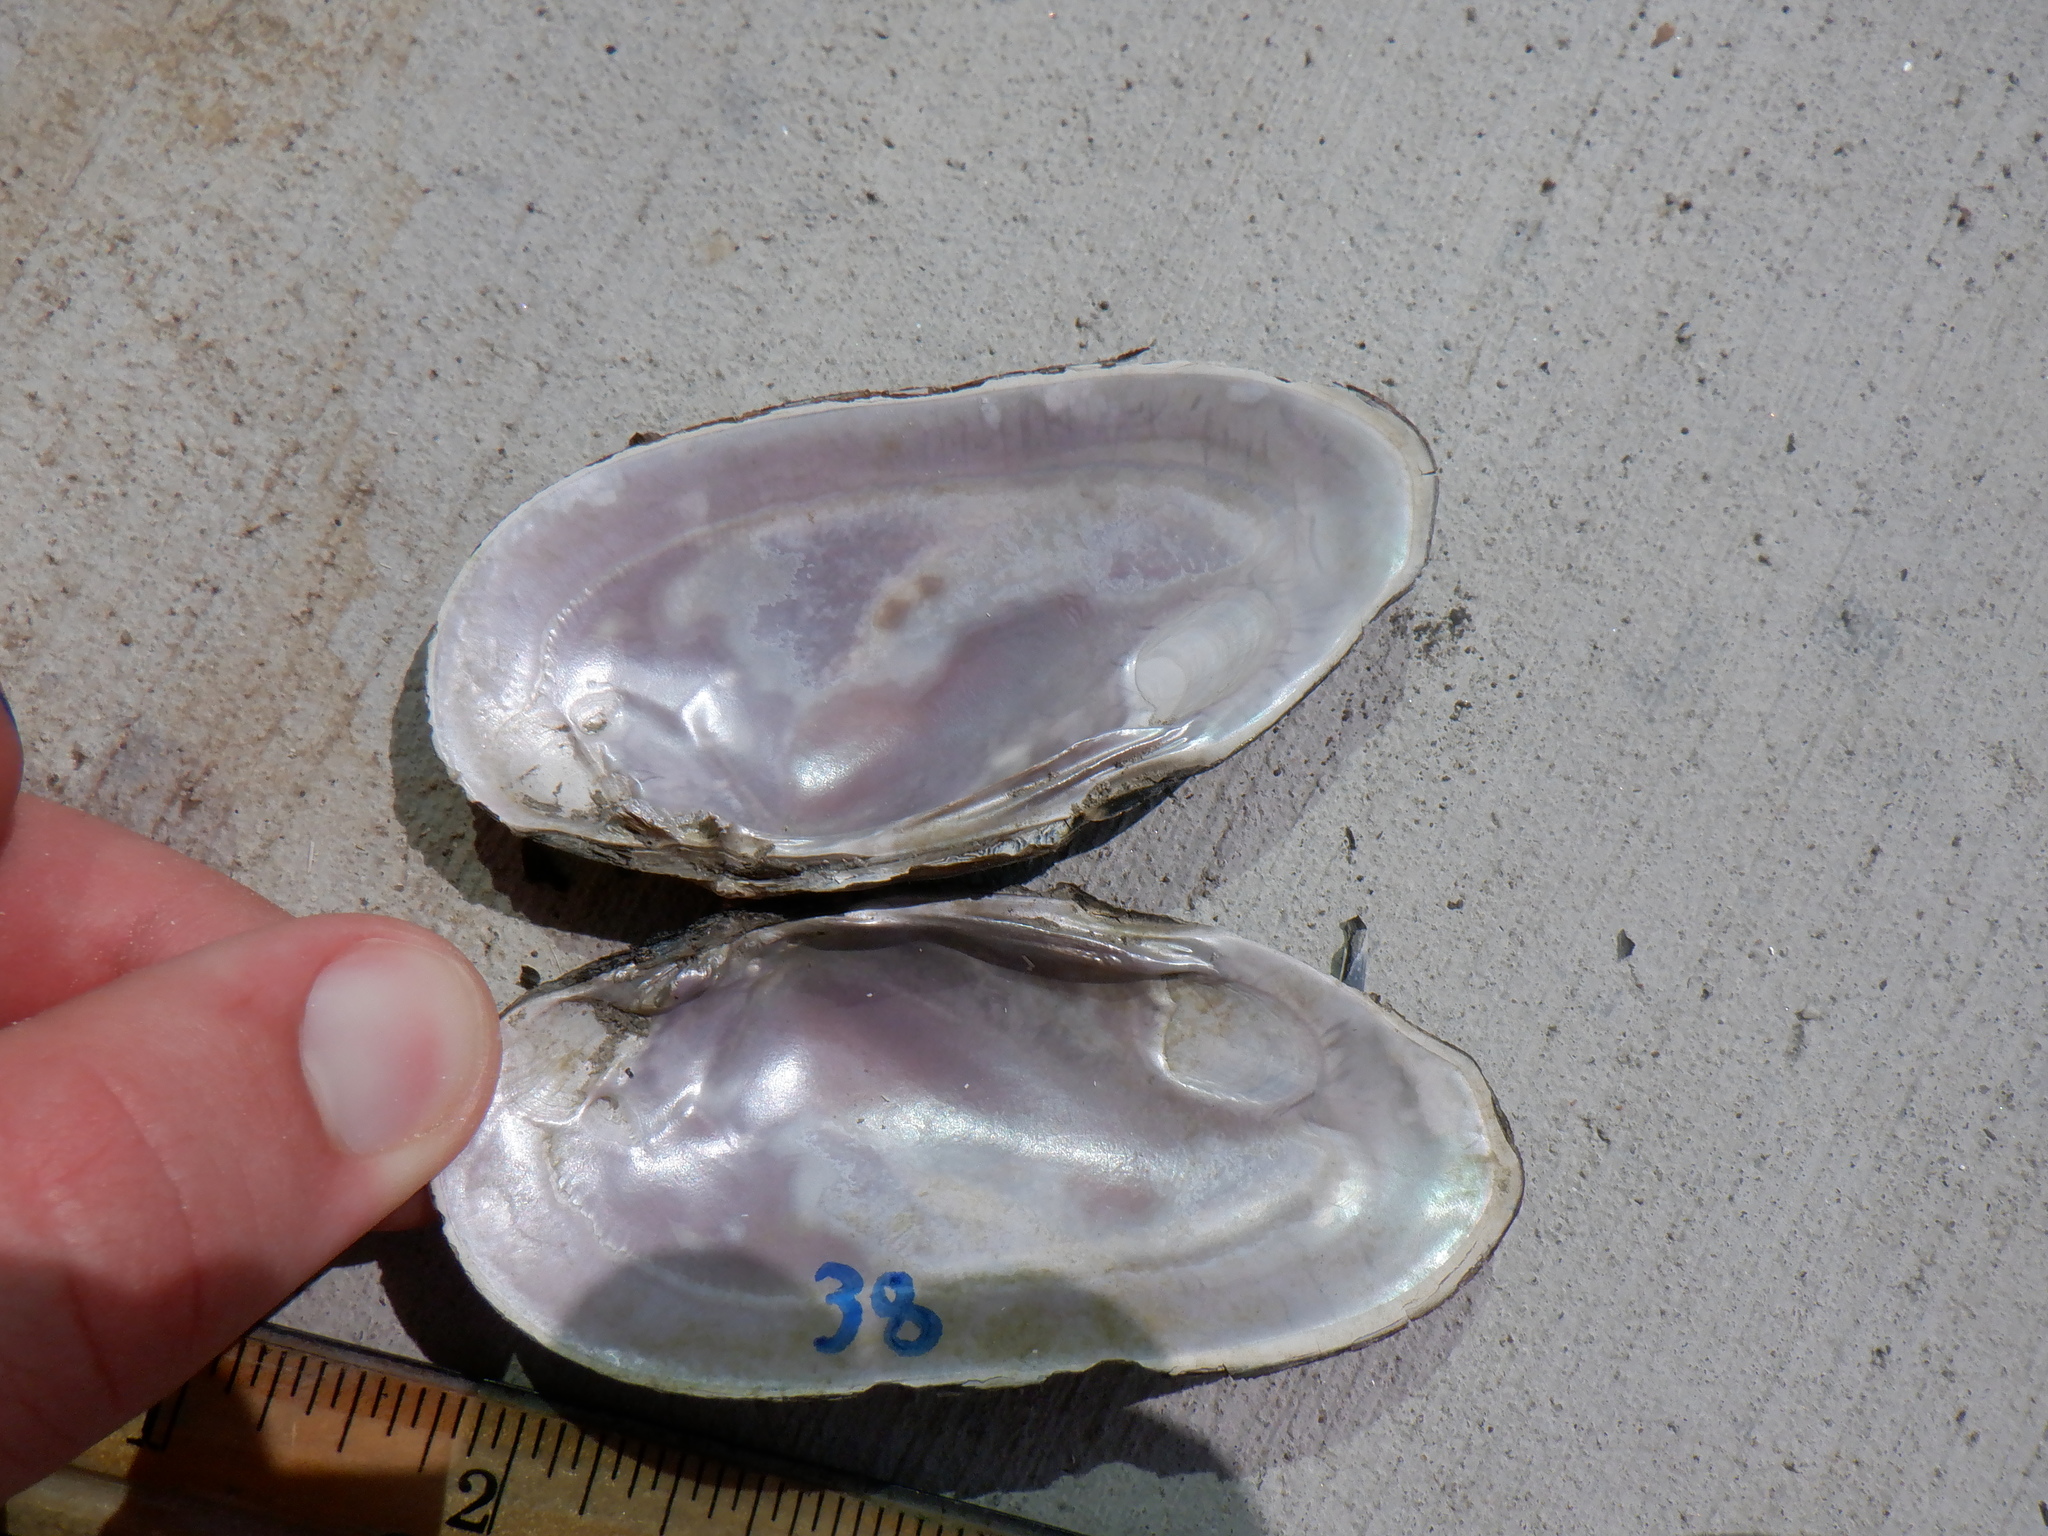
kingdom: Animalia
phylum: Mollusca
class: Bivalvia
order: Unionida
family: Unionidae
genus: Eurynia
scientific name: Eurynia dilatata
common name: Spike
